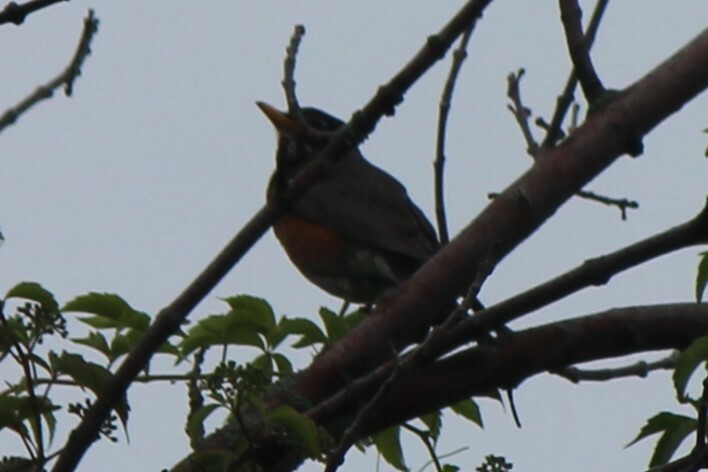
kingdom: Animalia
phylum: Chordata
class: Aves
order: Passeriformes
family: Turdidae
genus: Turdus
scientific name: Turdus migratorius
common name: American robin
